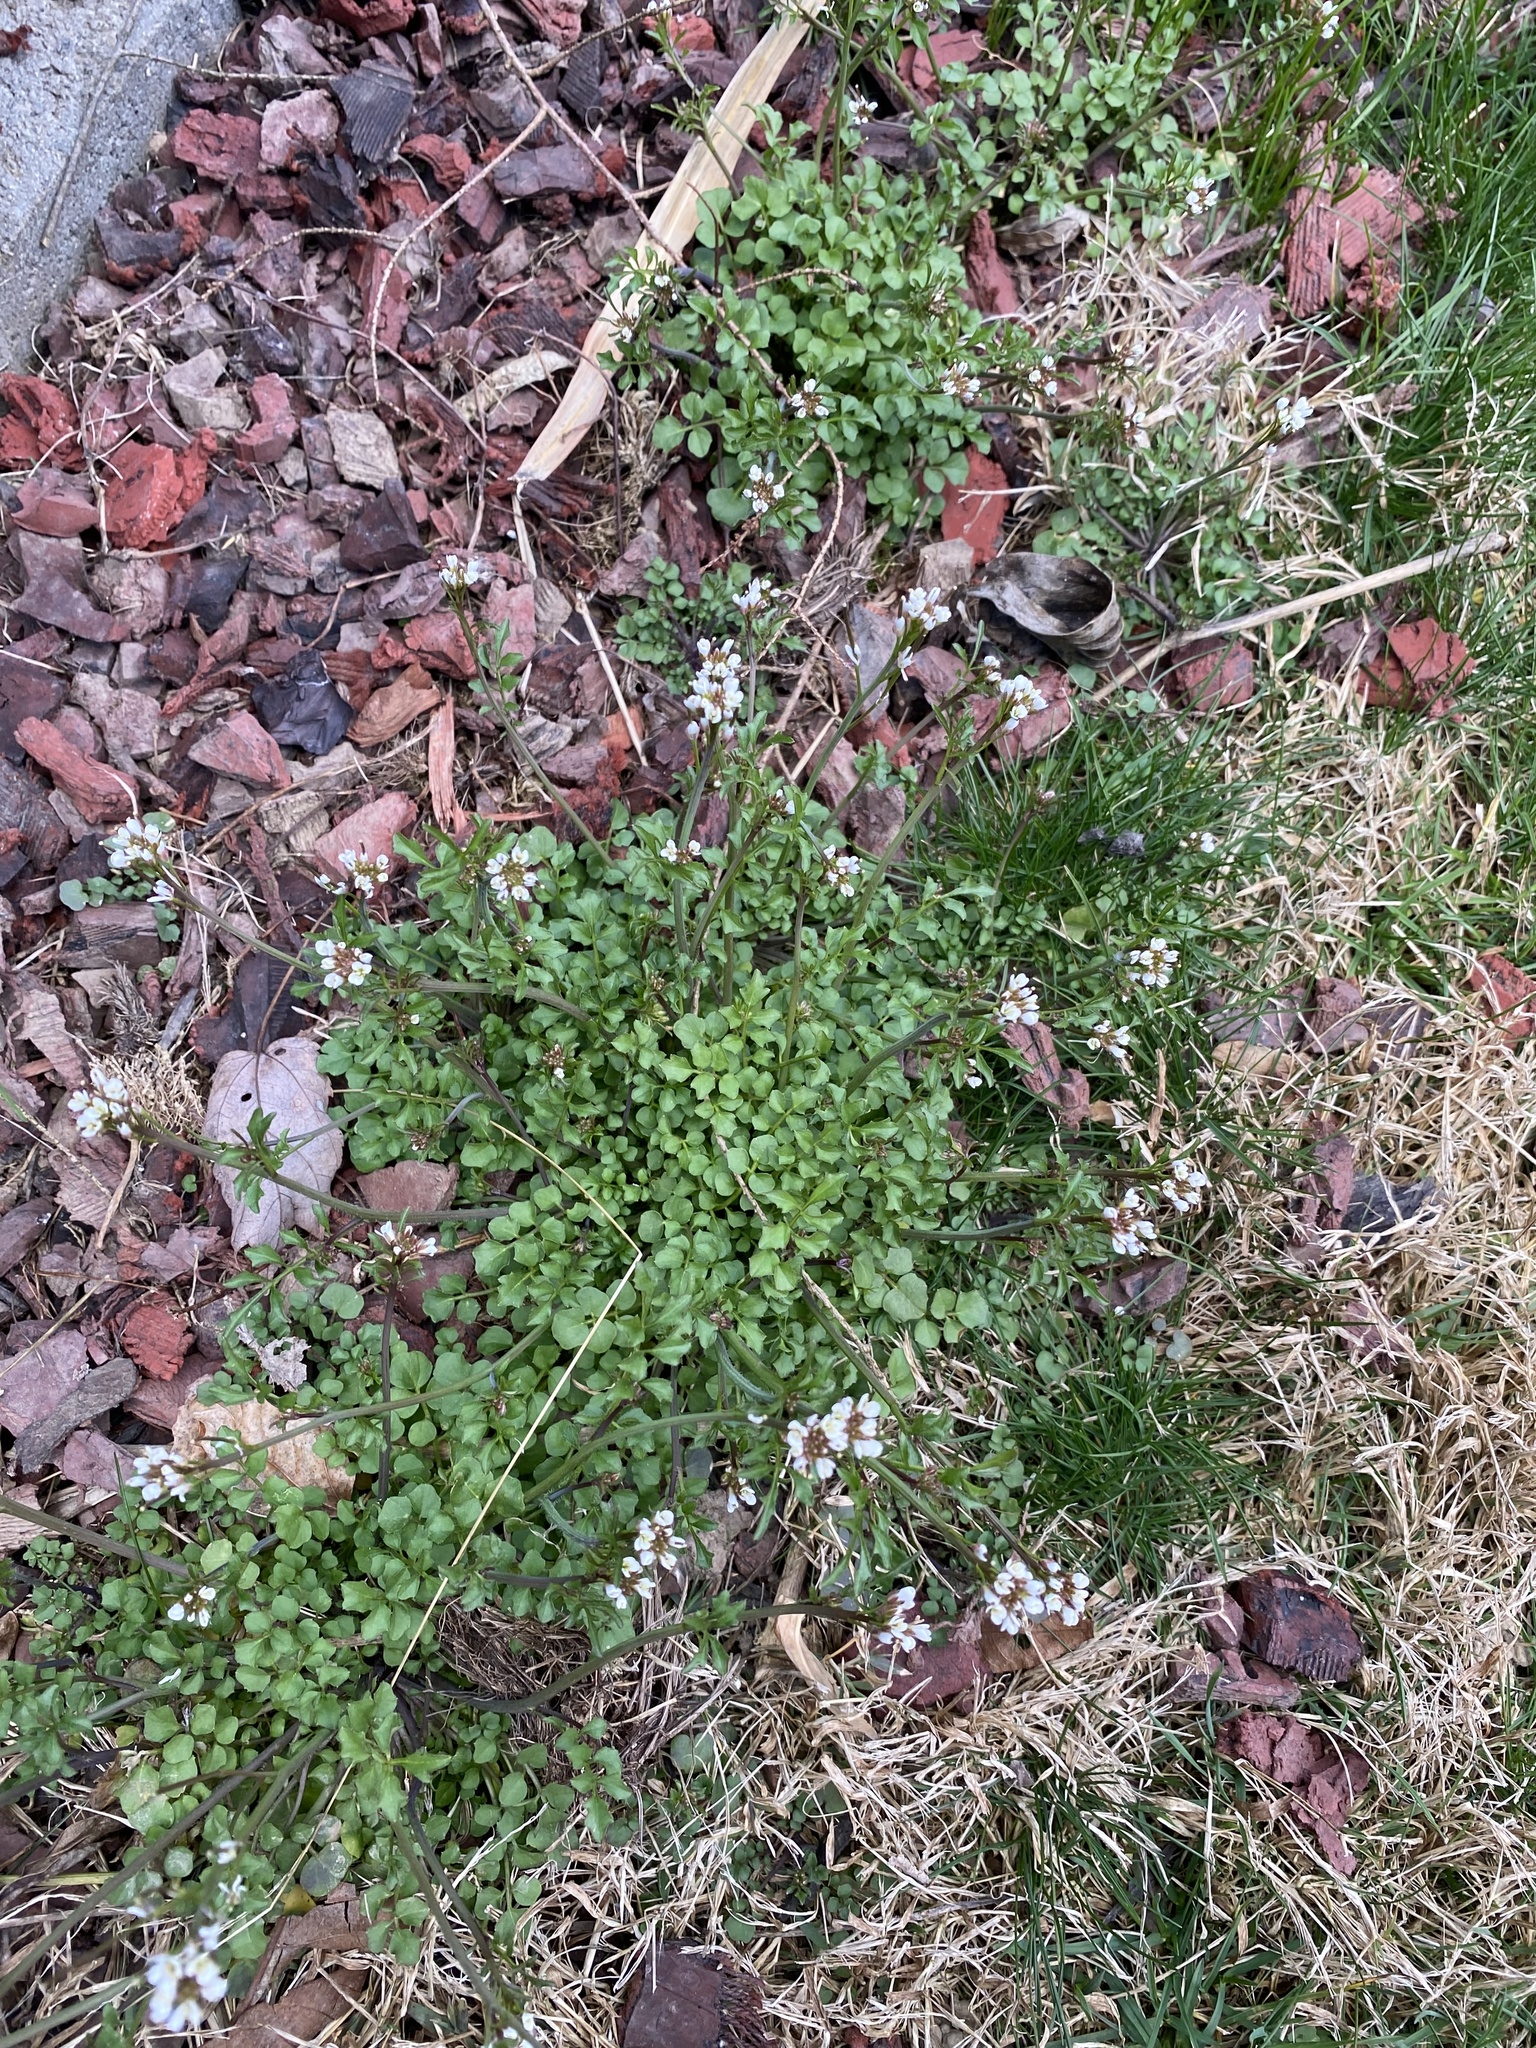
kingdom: Plantae
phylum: Tracheophyta
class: Magnoliopsida
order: Brassicales
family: Brassicaceae
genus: Cardamine
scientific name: Cardamine hirsuta
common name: Hairy bittercress
